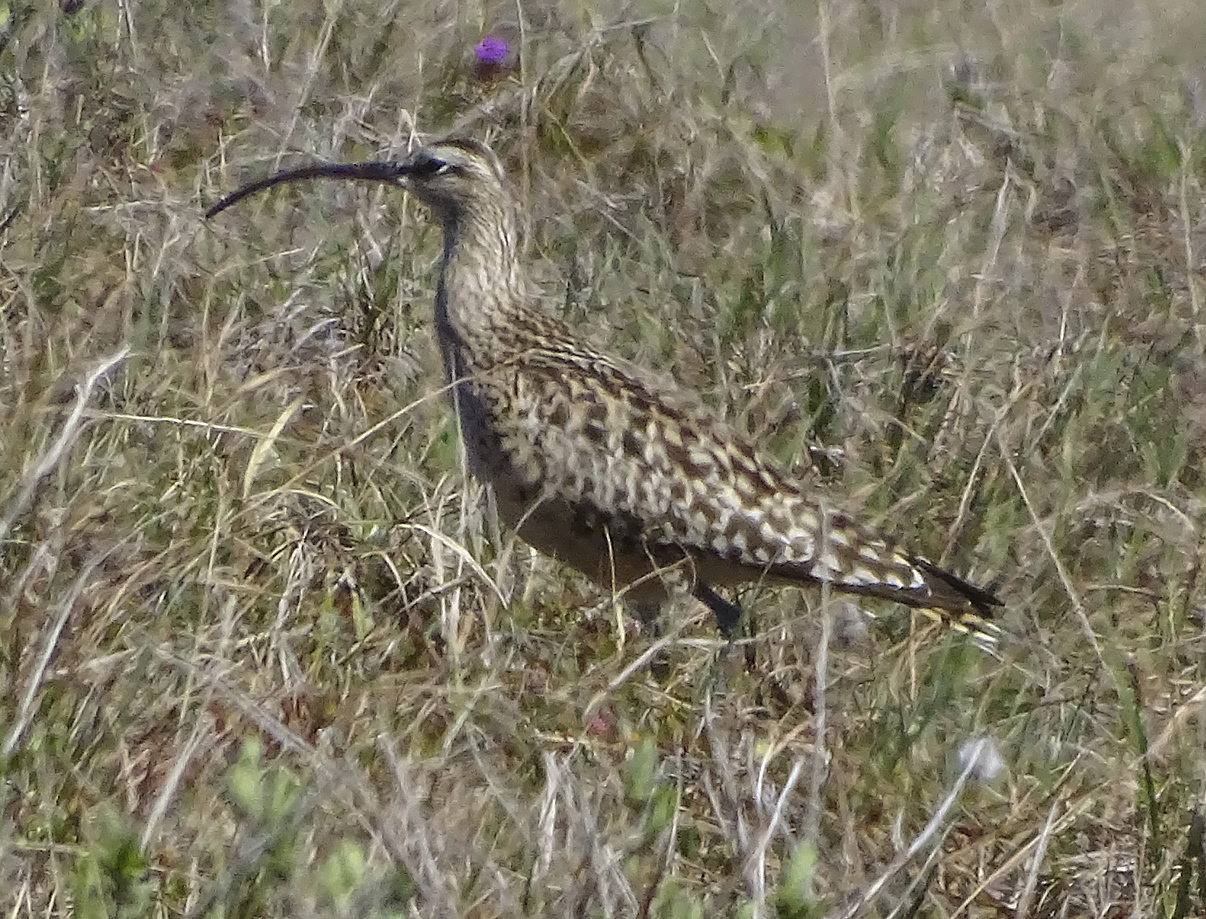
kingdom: Animalia
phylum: Chordata
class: Aves
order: Charadriiformes
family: Scolopacidae
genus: Numenius
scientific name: Numenius tahitiensis
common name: Bristle-thighed curlew
